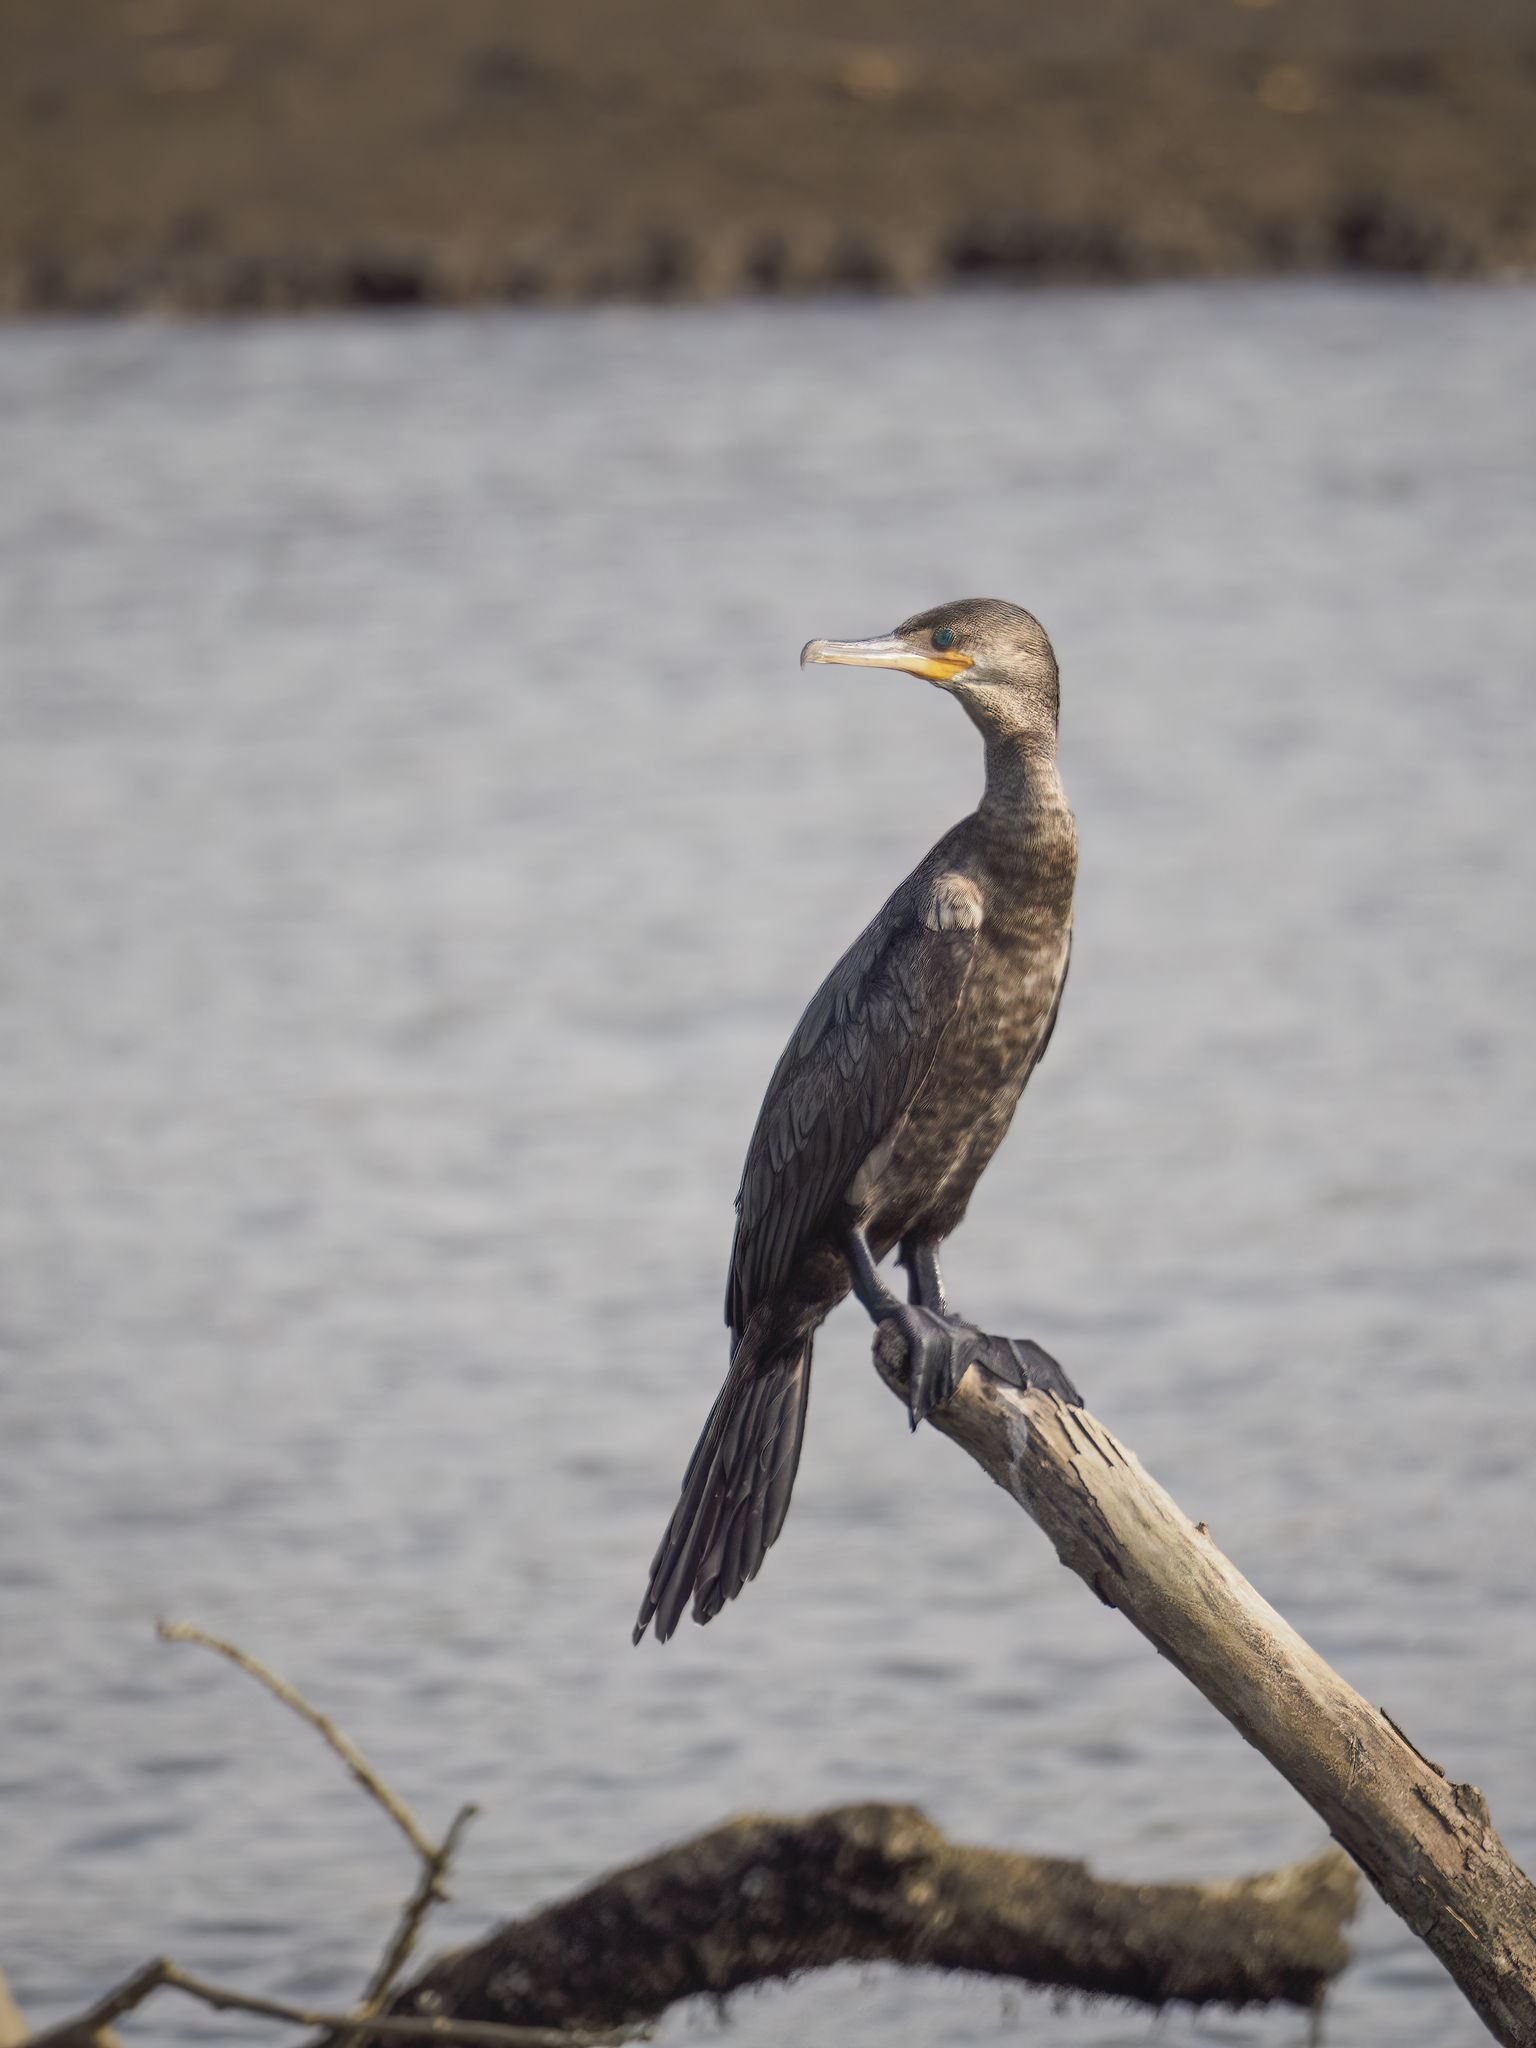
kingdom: Animalia
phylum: Chordata
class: Aves
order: Suliformes
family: Phalacrocoracidae
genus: Phalacrocorax
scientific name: Phalacrocorax brasilianus
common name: Neotropic cormorant
